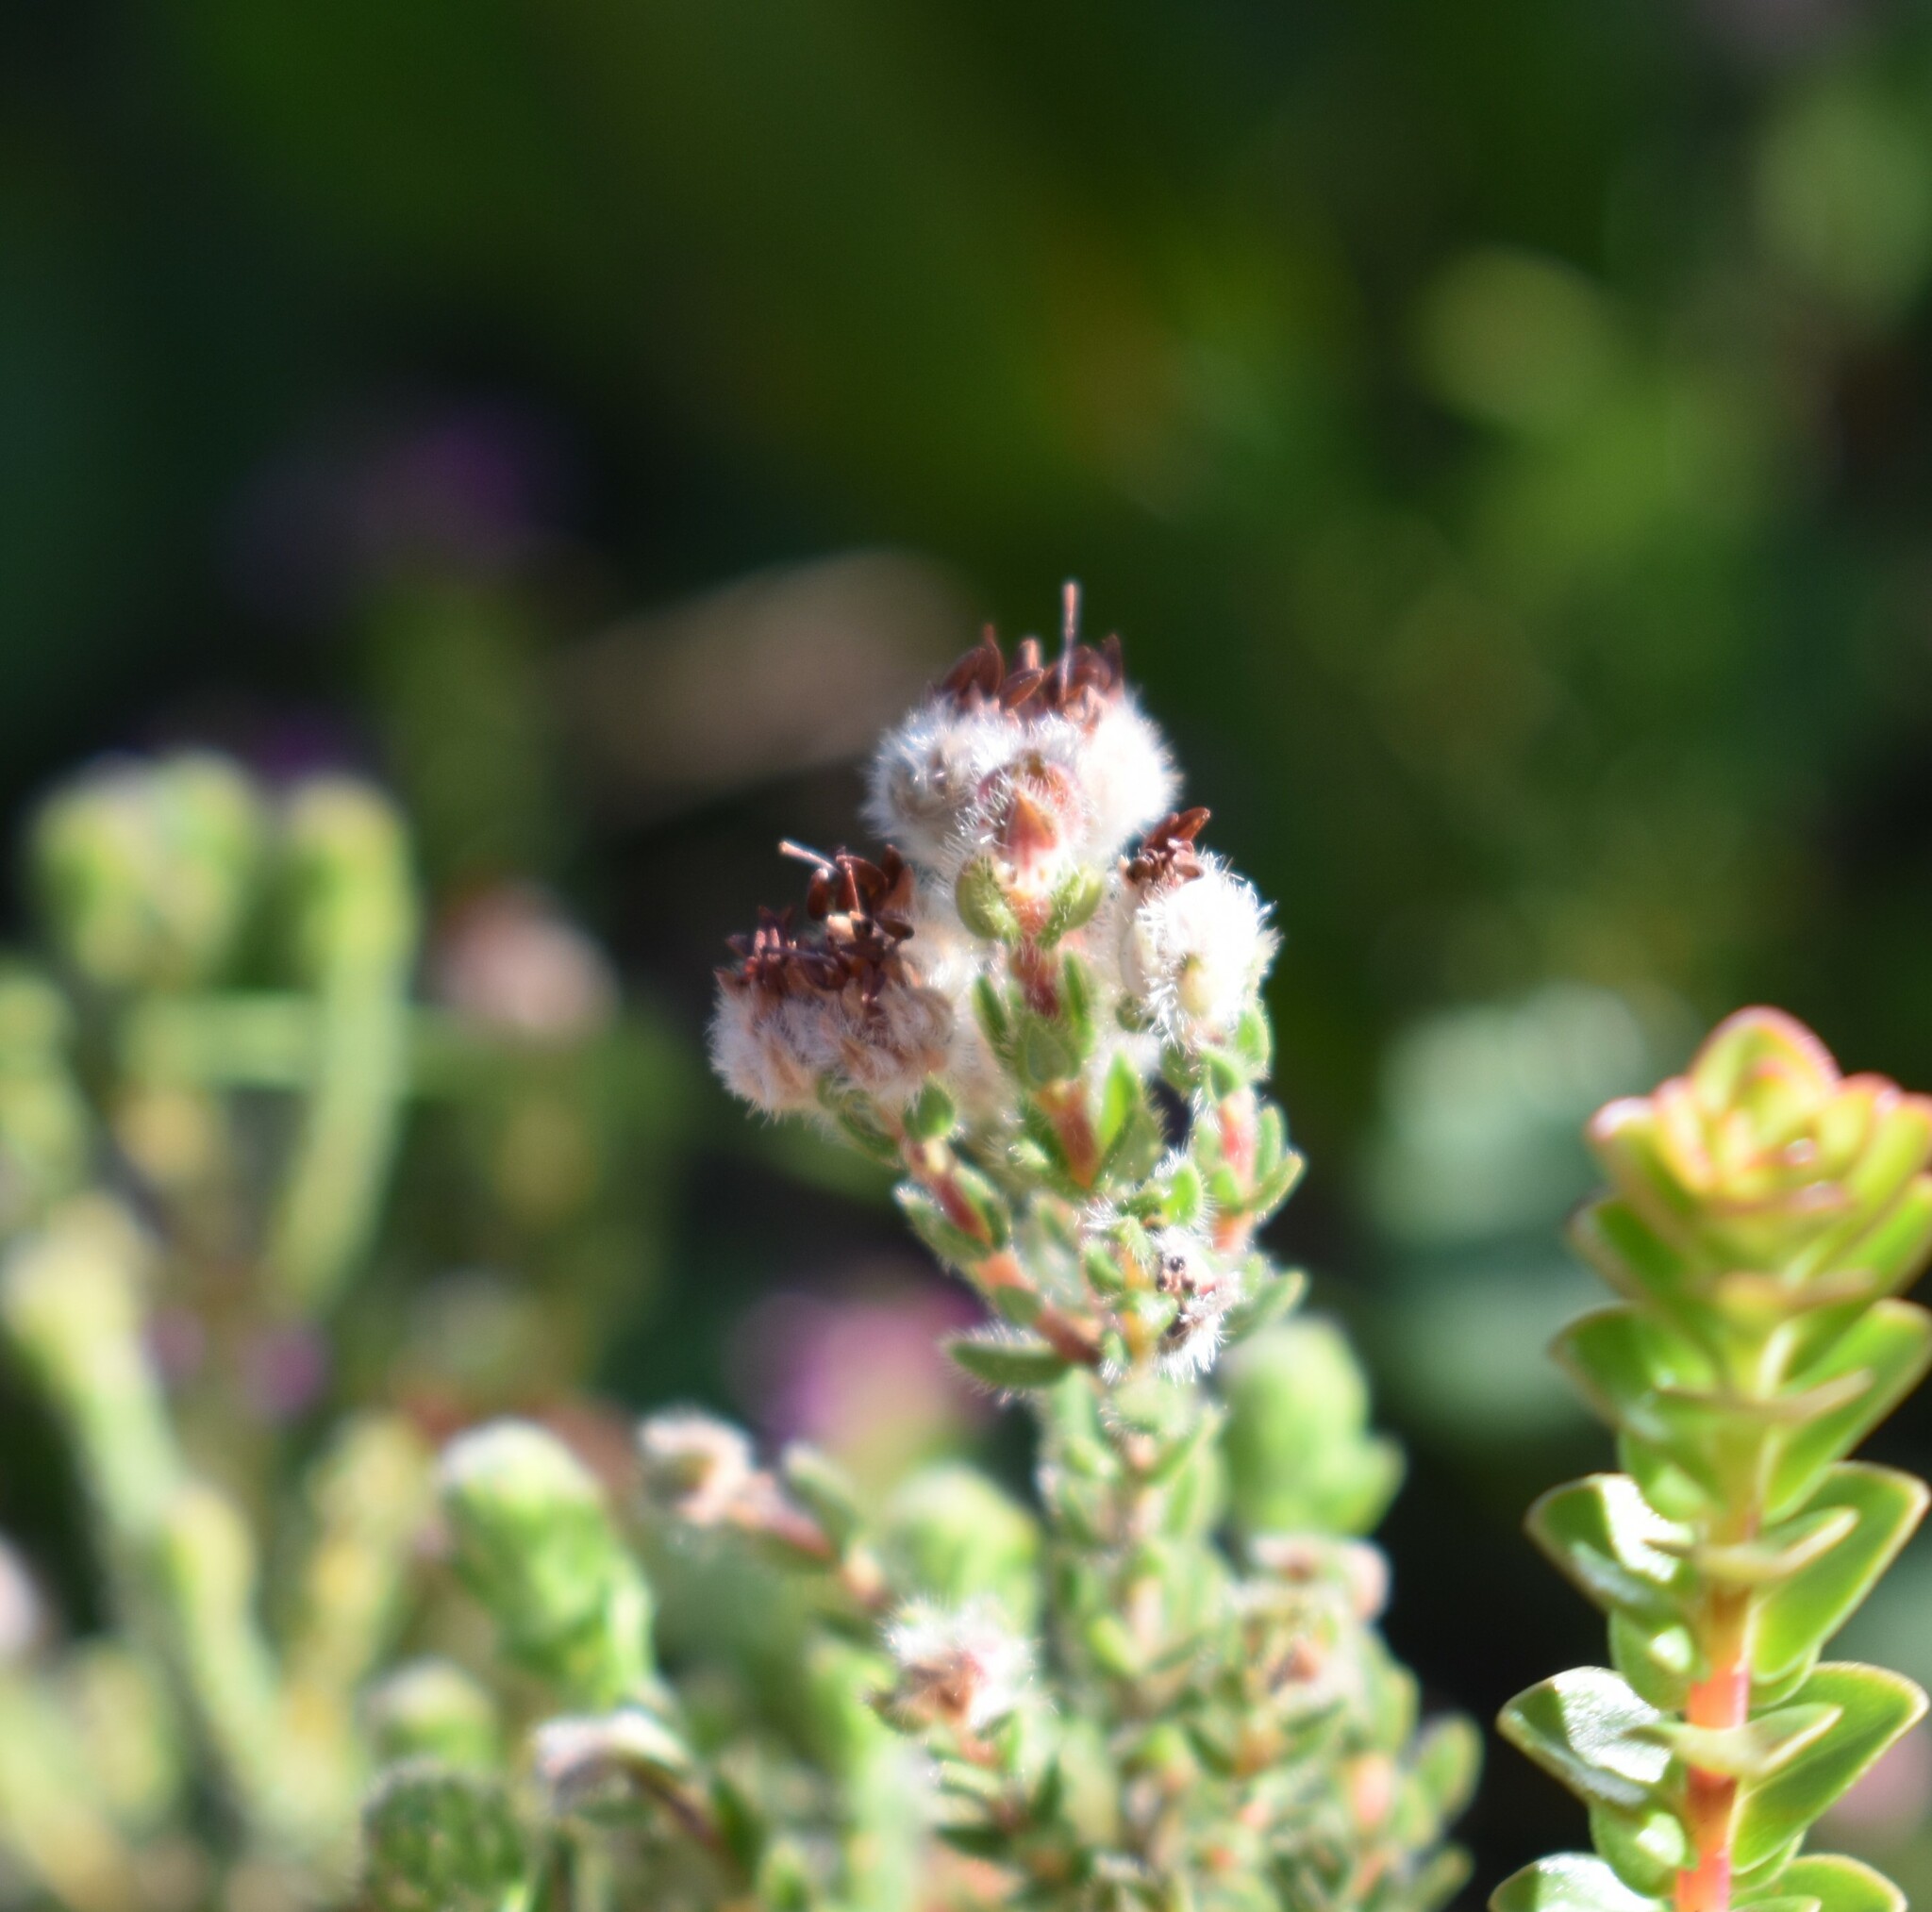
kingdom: Plantae
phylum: Tracheophyta
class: Magnoliopsida
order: Ericales
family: Ericaceae
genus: Erica
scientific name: Erica flaccida
